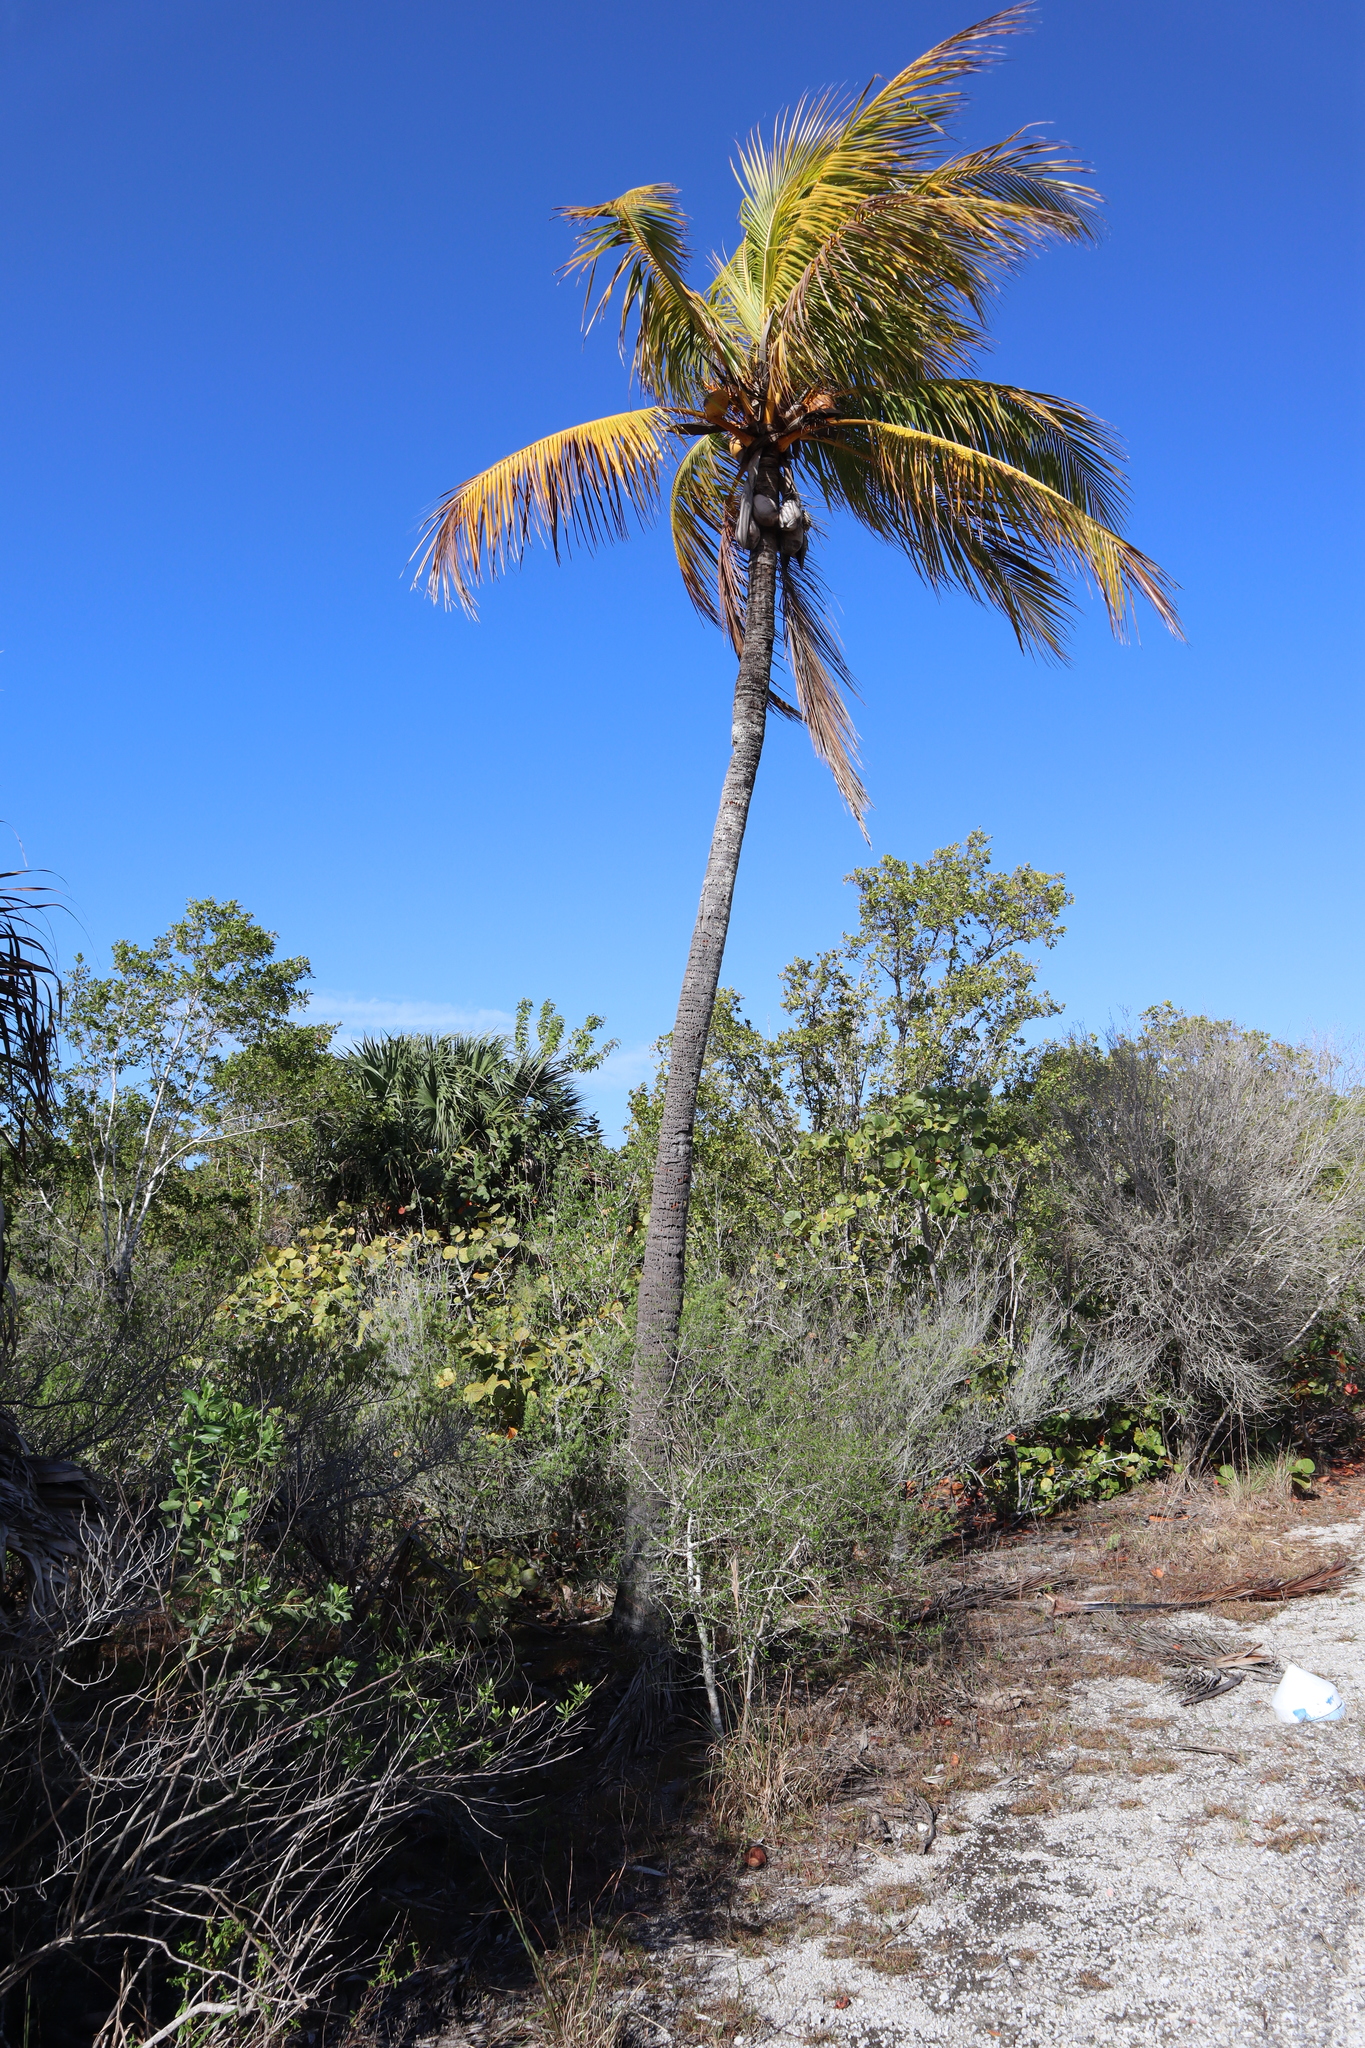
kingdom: Plantae
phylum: Tracheophyta
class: Liliopsida
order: Arecales
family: Arecaceae
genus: Cocos
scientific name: Cocos nucifera
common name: Coconut palm
